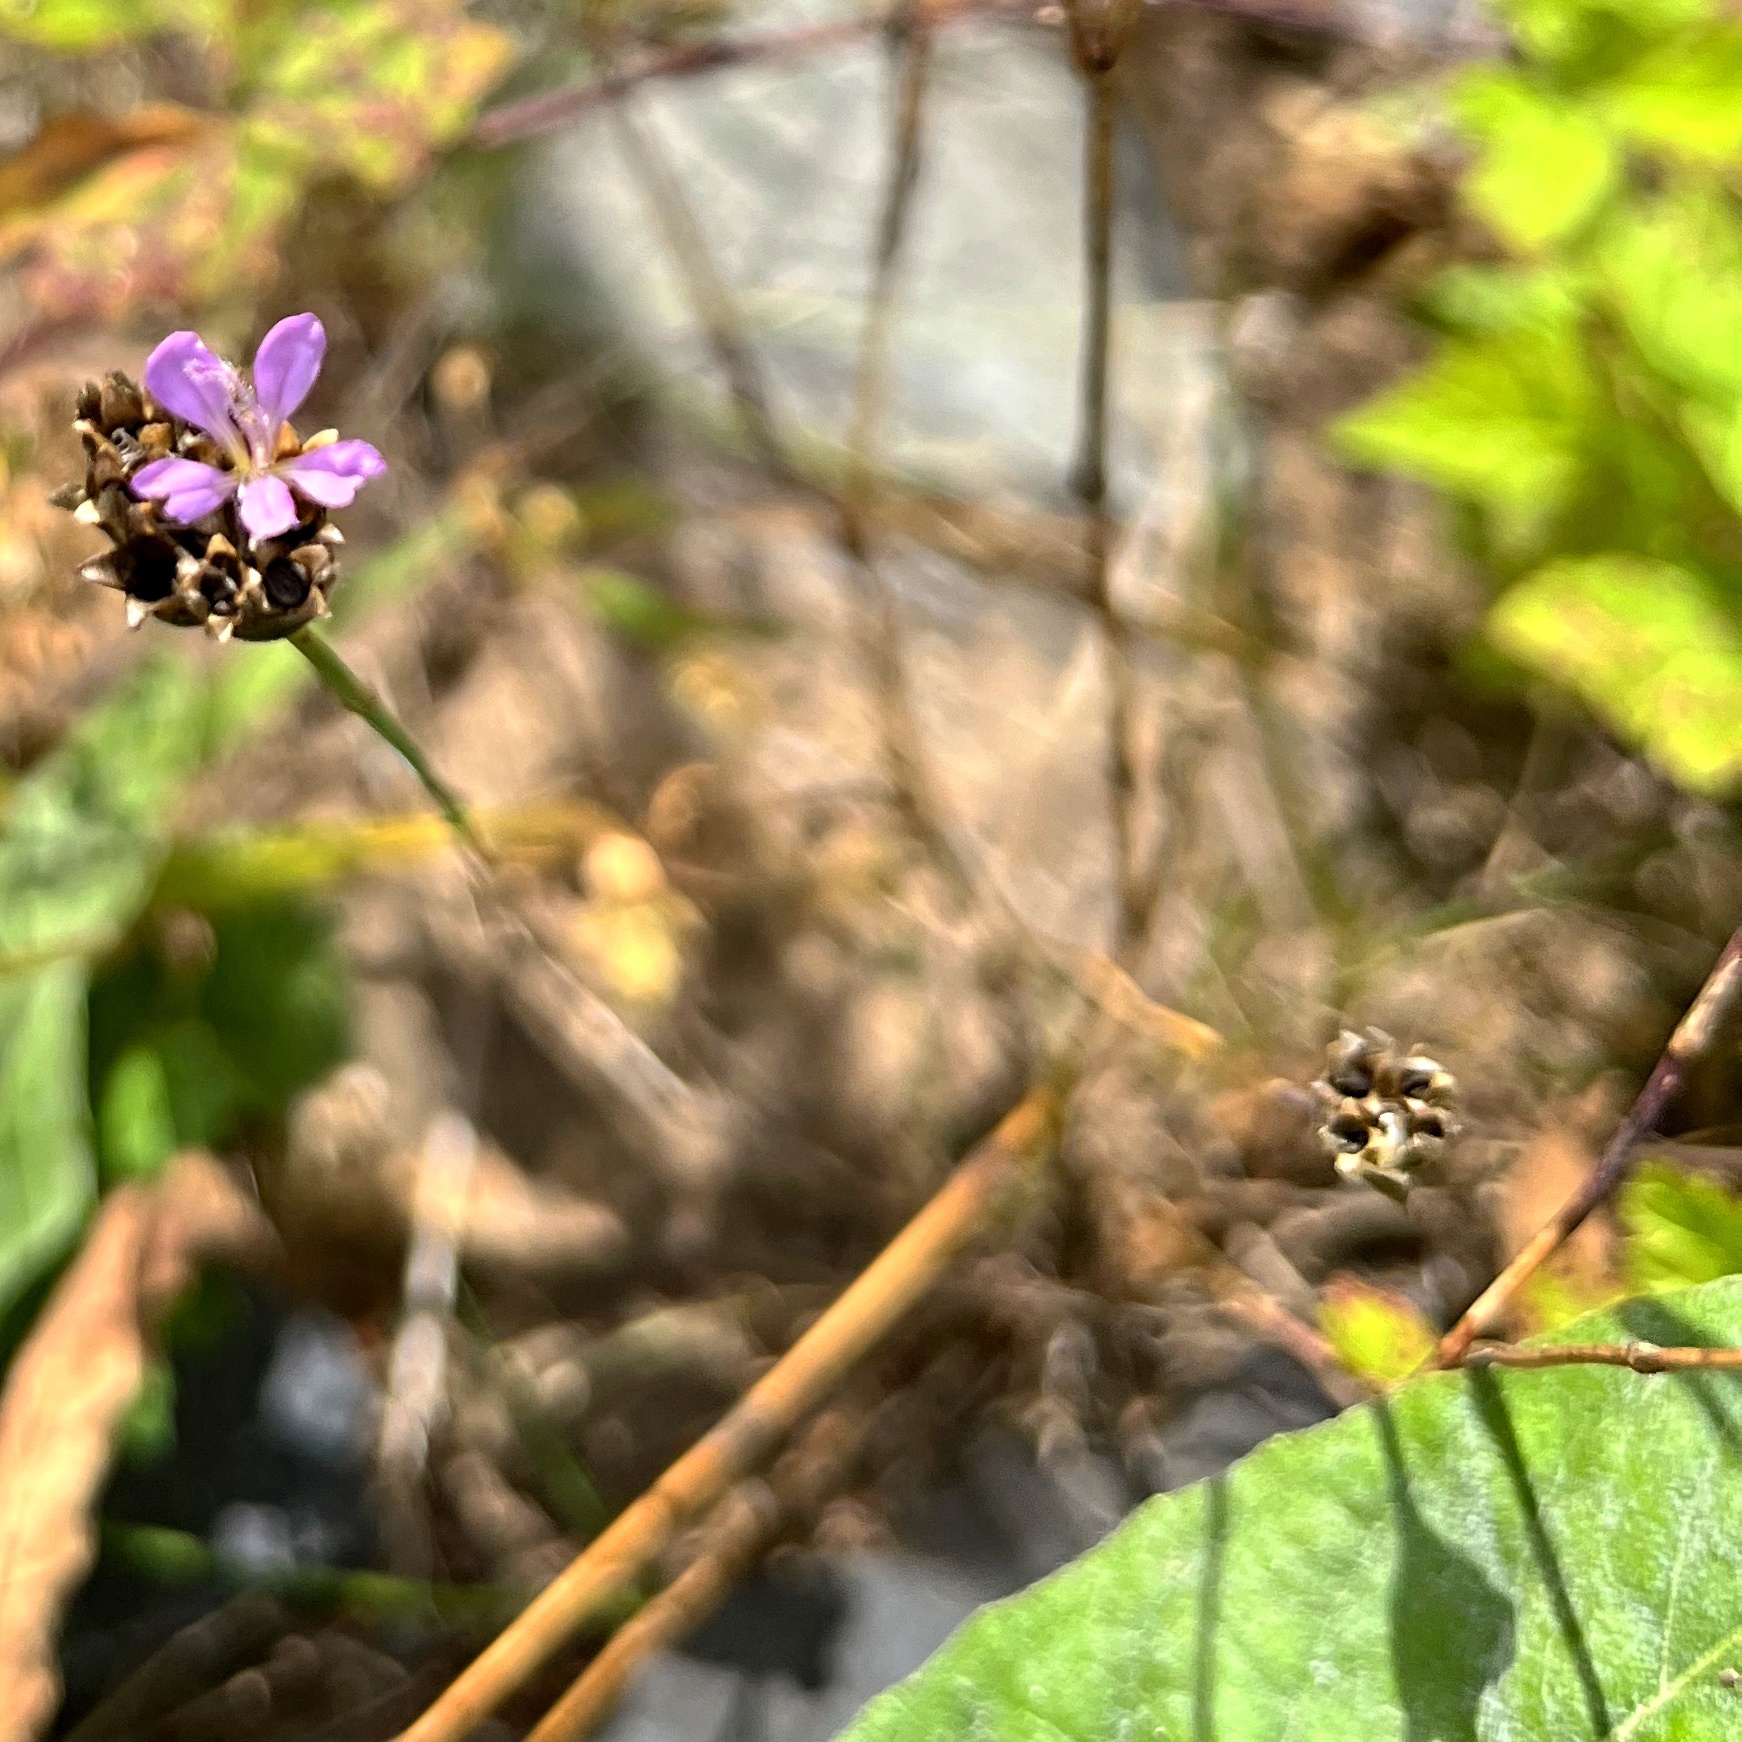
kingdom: Plantae
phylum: Tracheophyta
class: Magnoliopsida
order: Caryophyllales
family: Caryophyllaceae
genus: Petrorhagia
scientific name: Petrorhagia prolifera
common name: Proliferous pink
